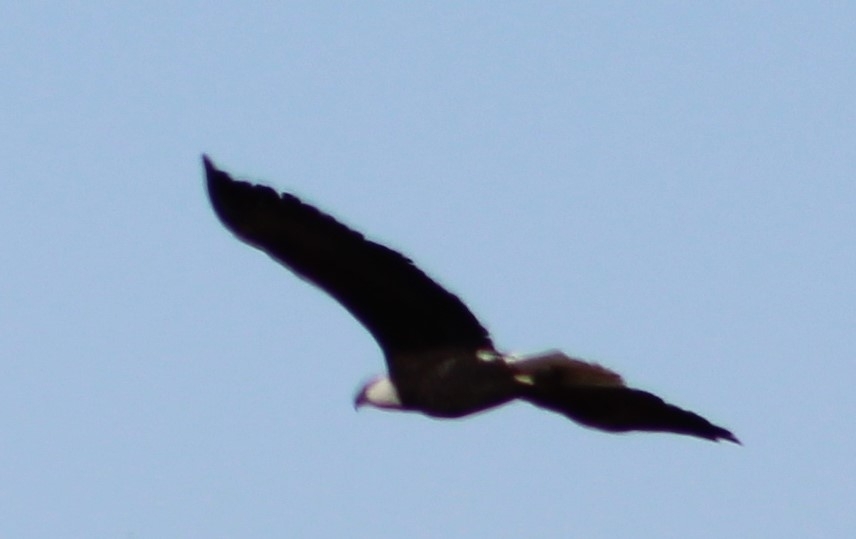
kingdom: Animalia
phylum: Chordata
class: Aves
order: Accipitriformes
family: Accipitridae
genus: Haliaeetus
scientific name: Haliaeetus leucocephalus
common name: Bald eagle
